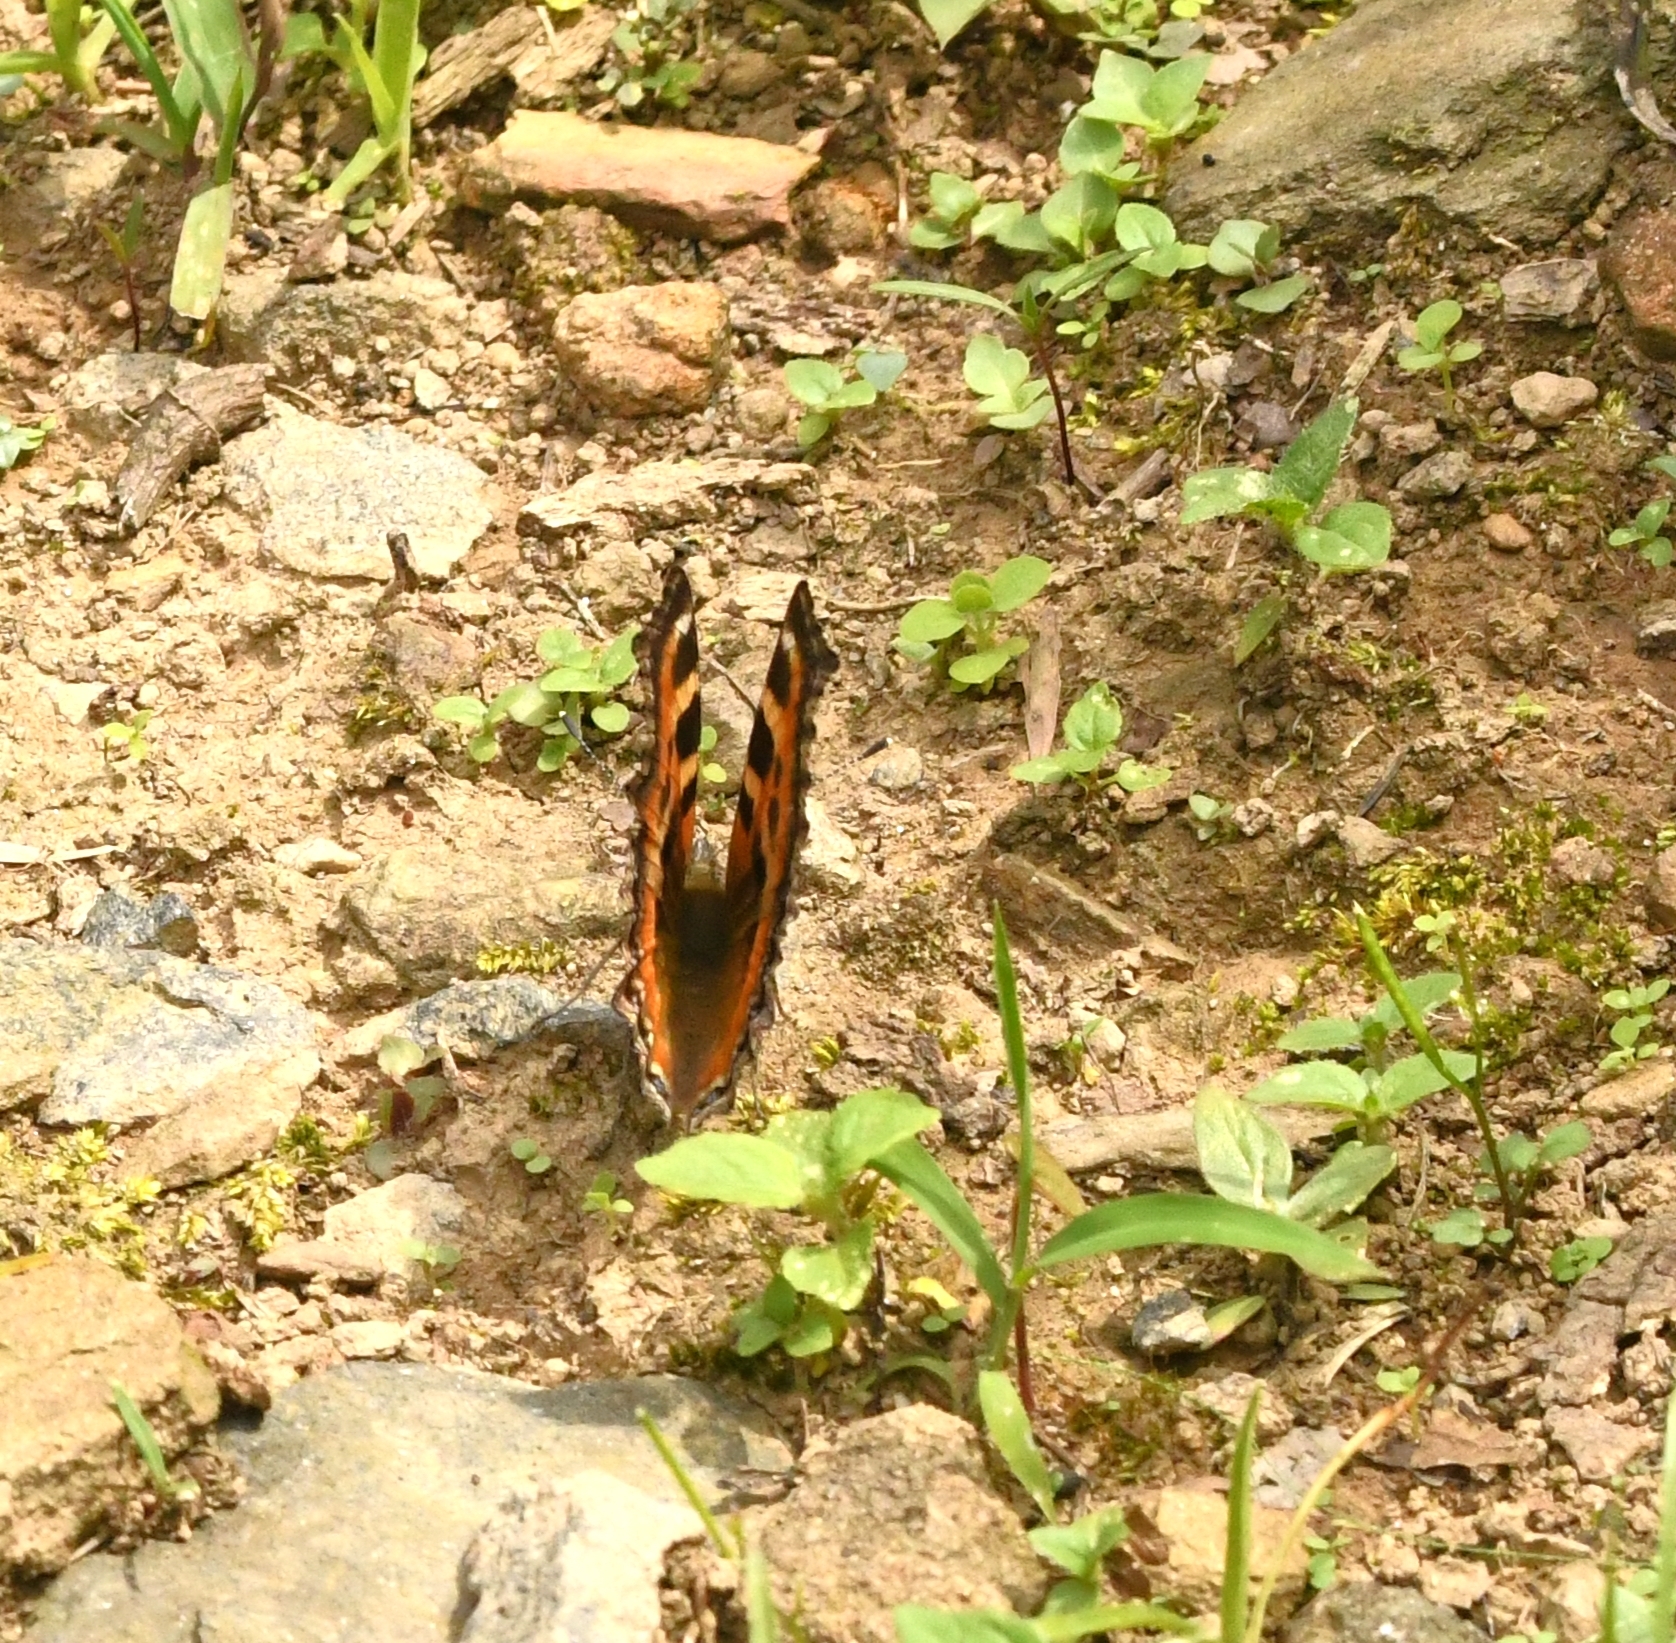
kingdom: Animalia
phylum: Arthropoda
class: Insecta
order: Lepidoptera
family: Nymphalidae
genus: Aglais
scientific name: Aglais caschmirensis
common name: Indian tortoiseshell
